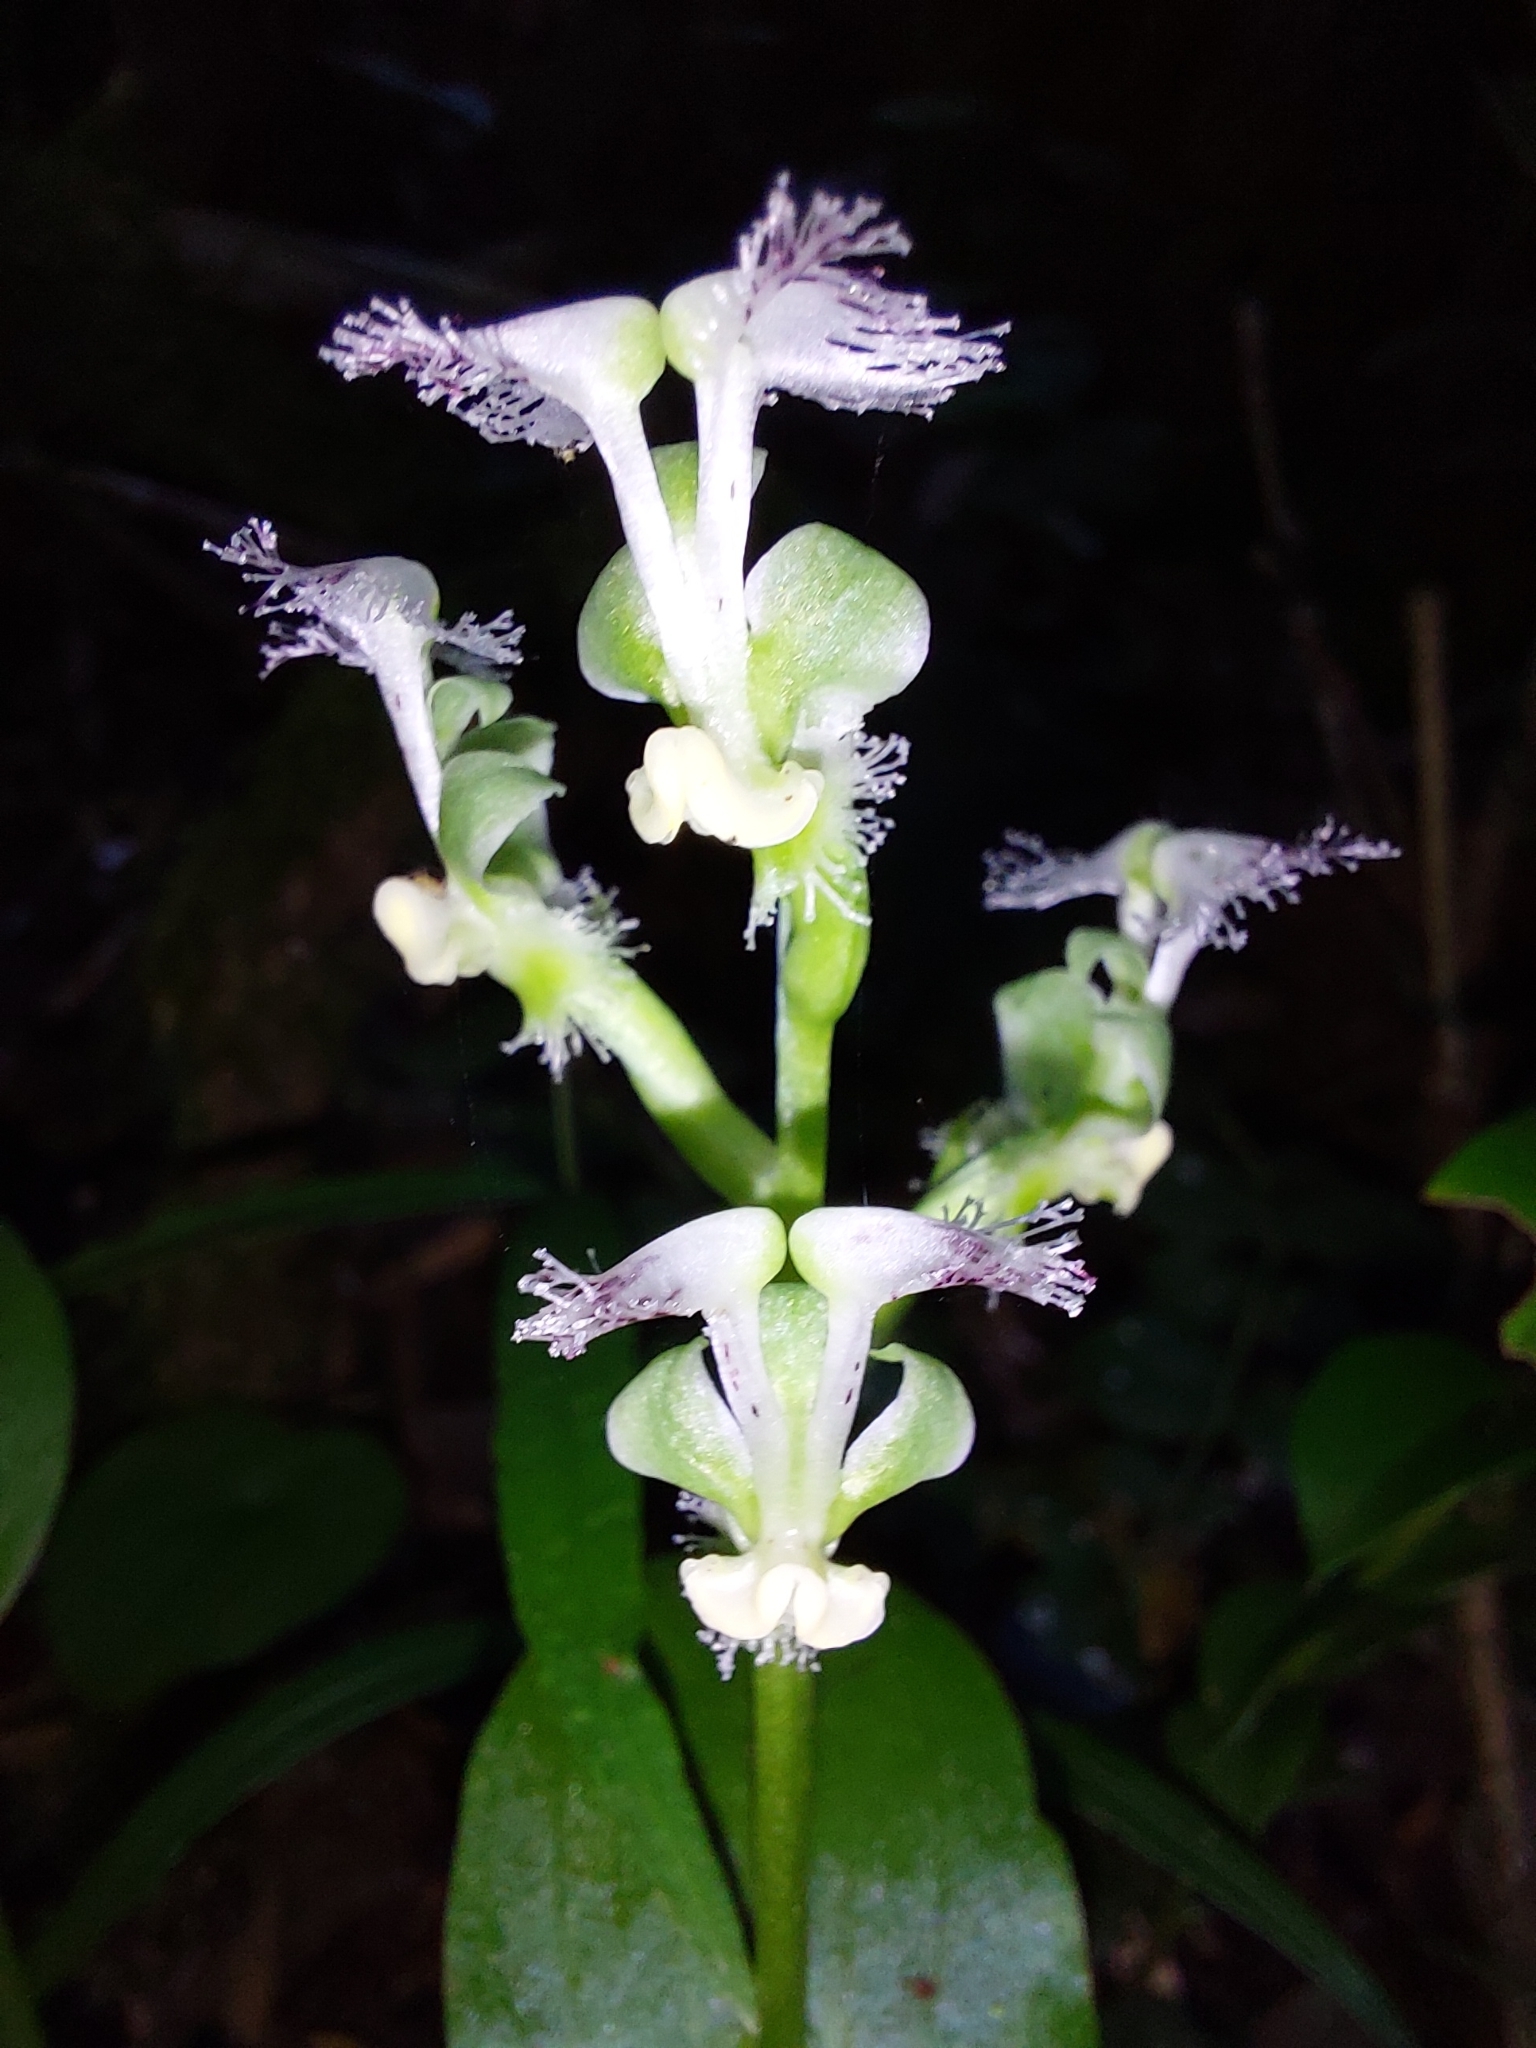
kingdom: Plantae
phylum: Tracheophyta
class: Liliopsida
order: Asparagales
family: Orchidaceae
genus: Huttonaea
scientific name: Huttonaea pulchra
